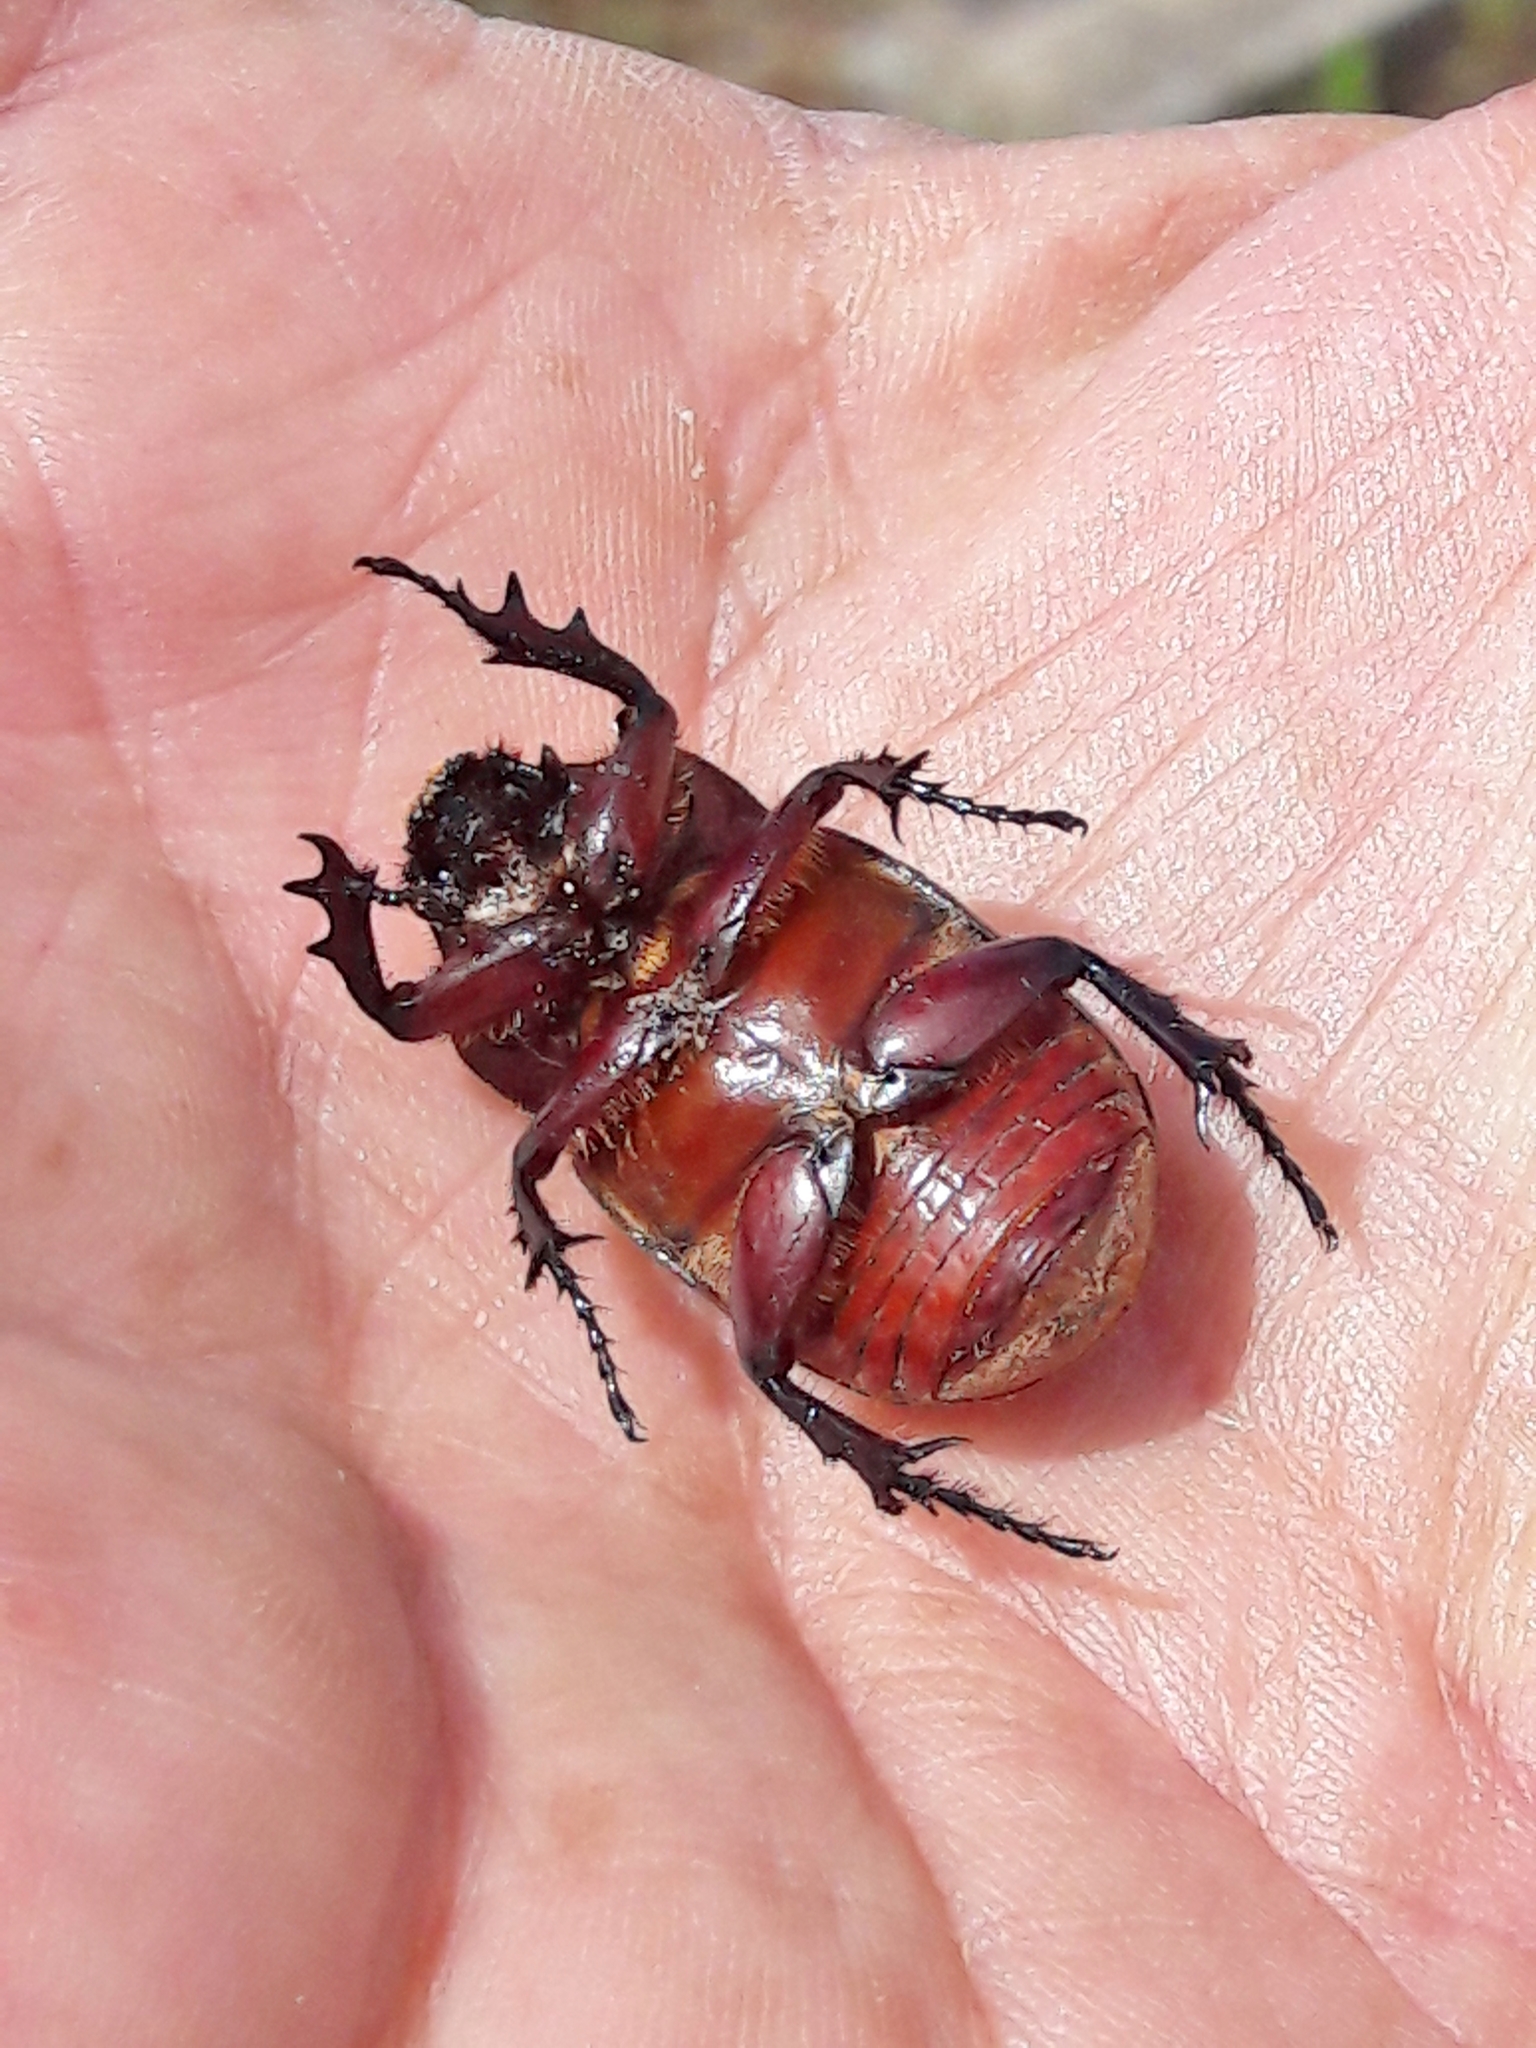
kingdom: Animalia
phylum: Arthropoda
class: Insecta
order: Coleoptera
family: Scarabaeidae
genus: Coelosis
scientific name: Coelosis bicornis
